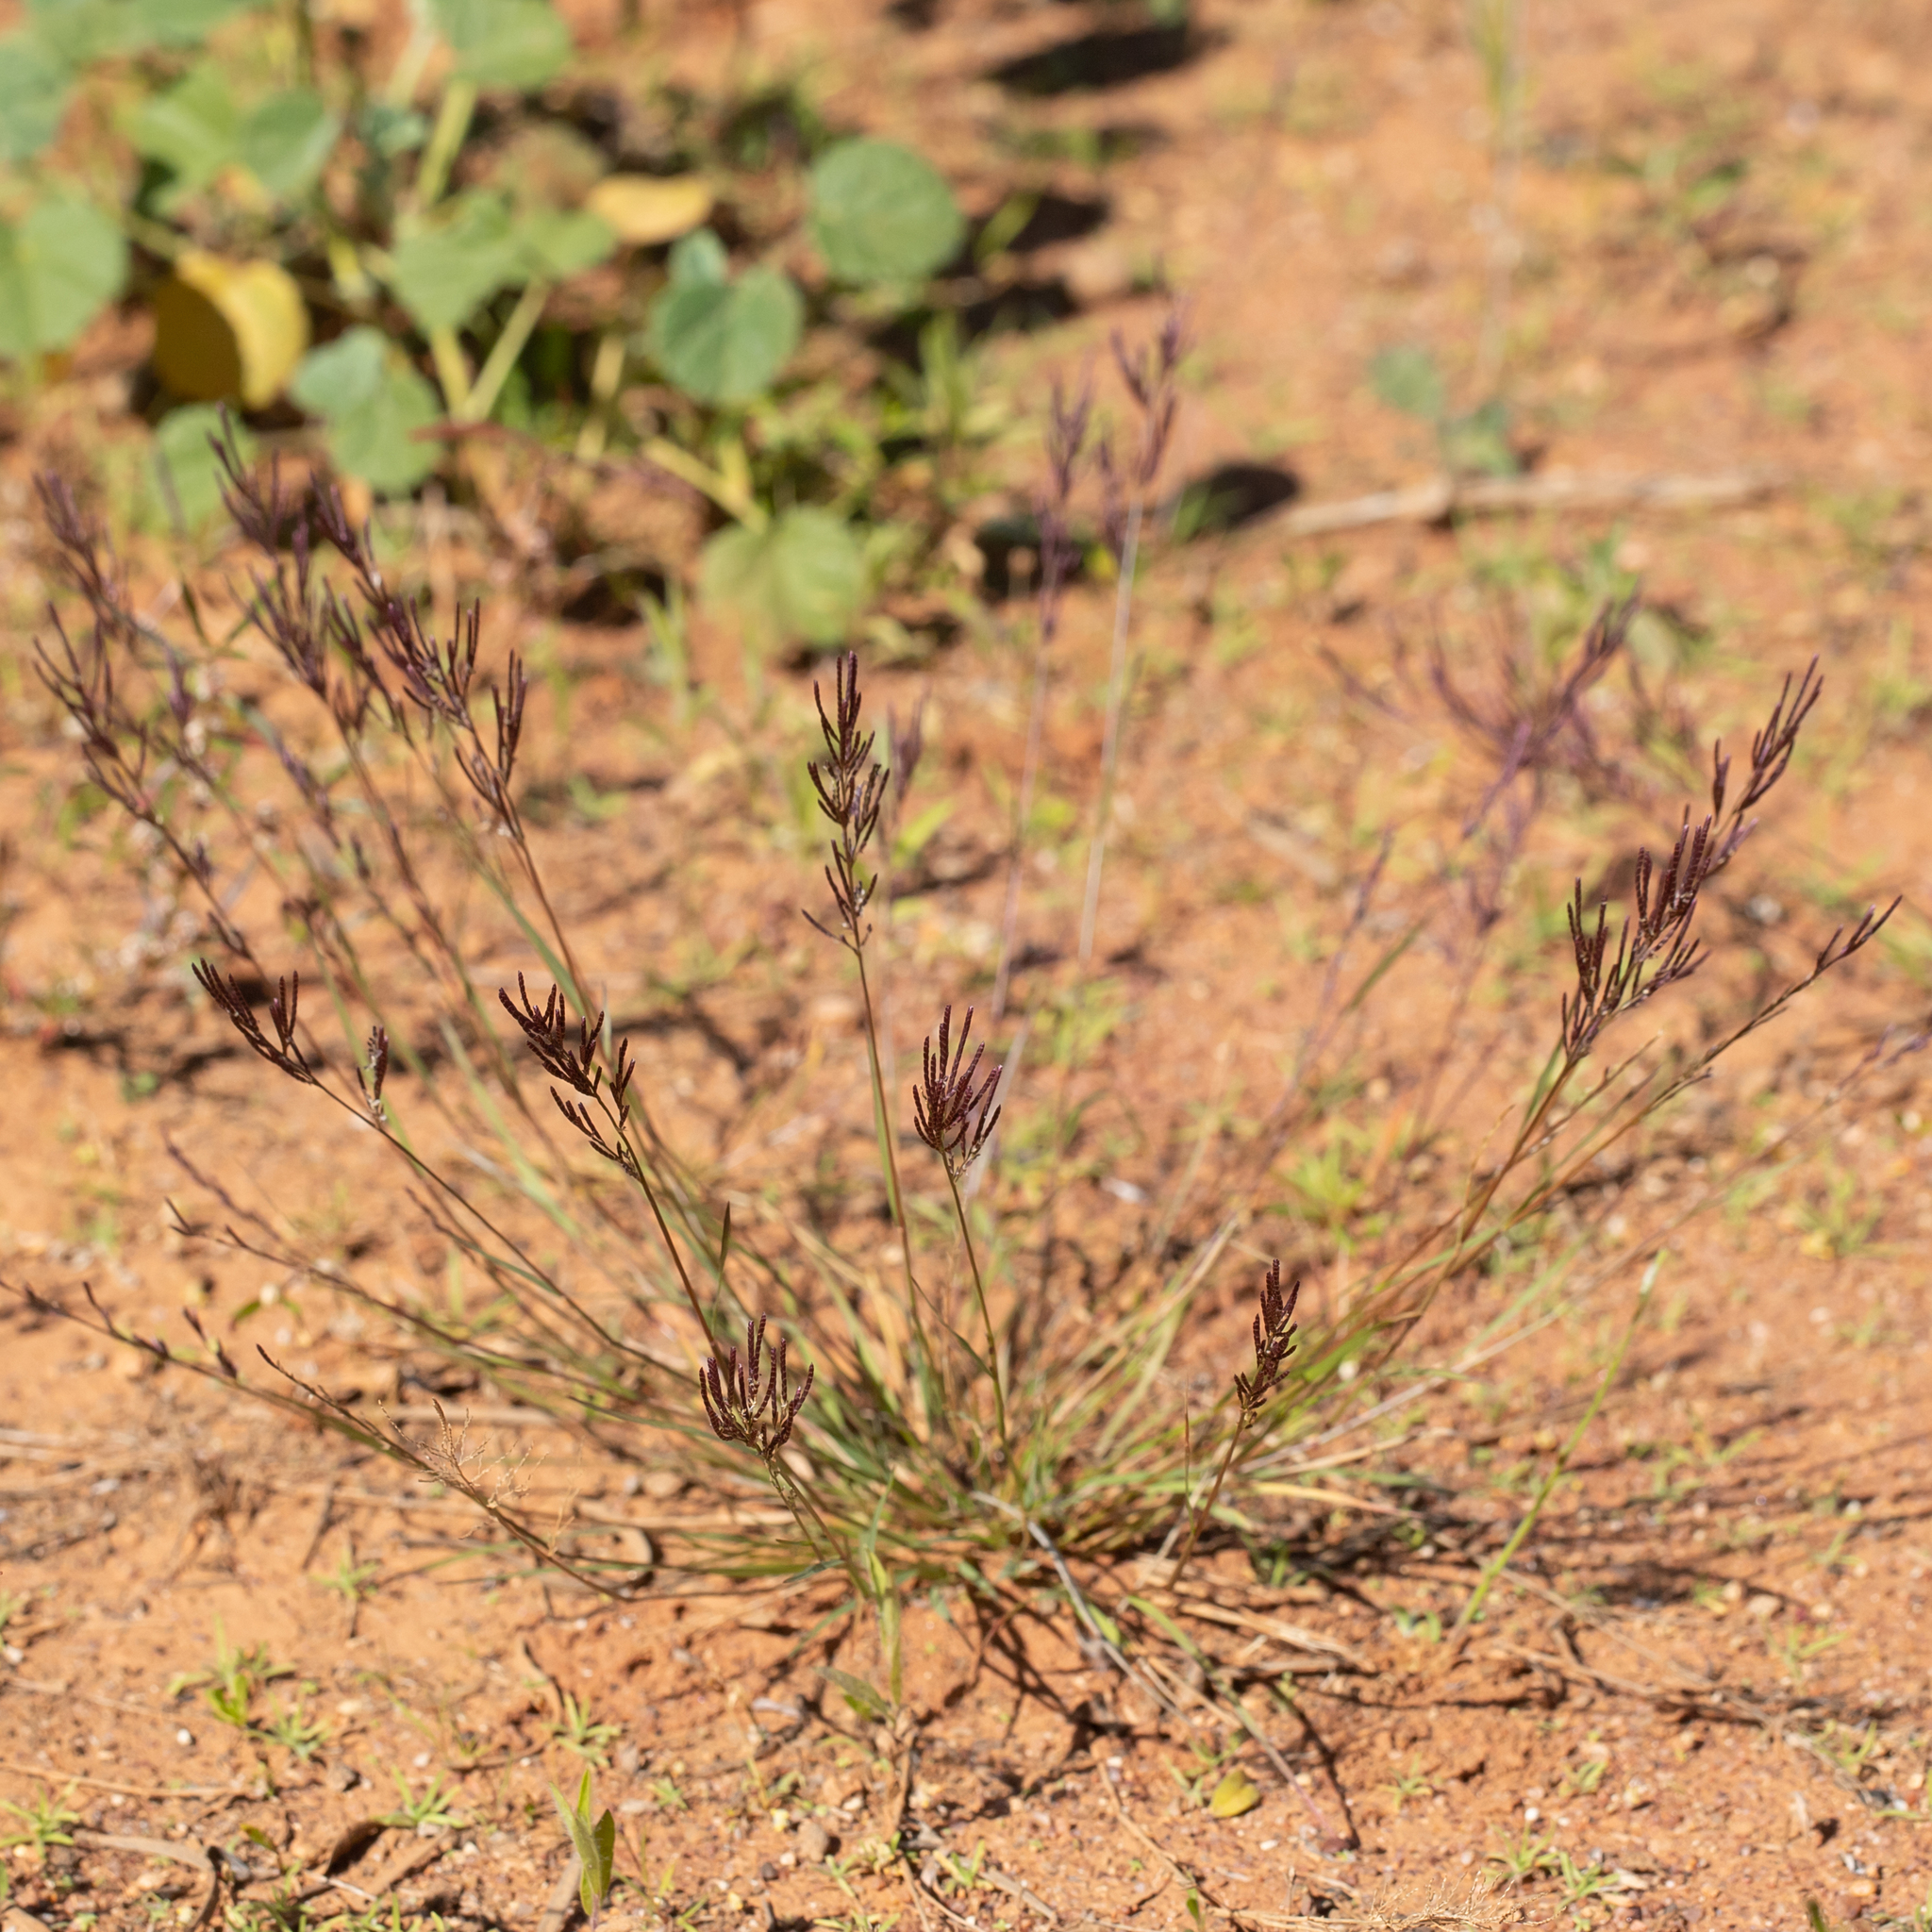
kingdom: Plantae
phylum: Tracheophyta
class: Liliopsida
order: Poales
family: Poaceae
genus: Eragrostis
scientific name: Eragrostis pergracilis
